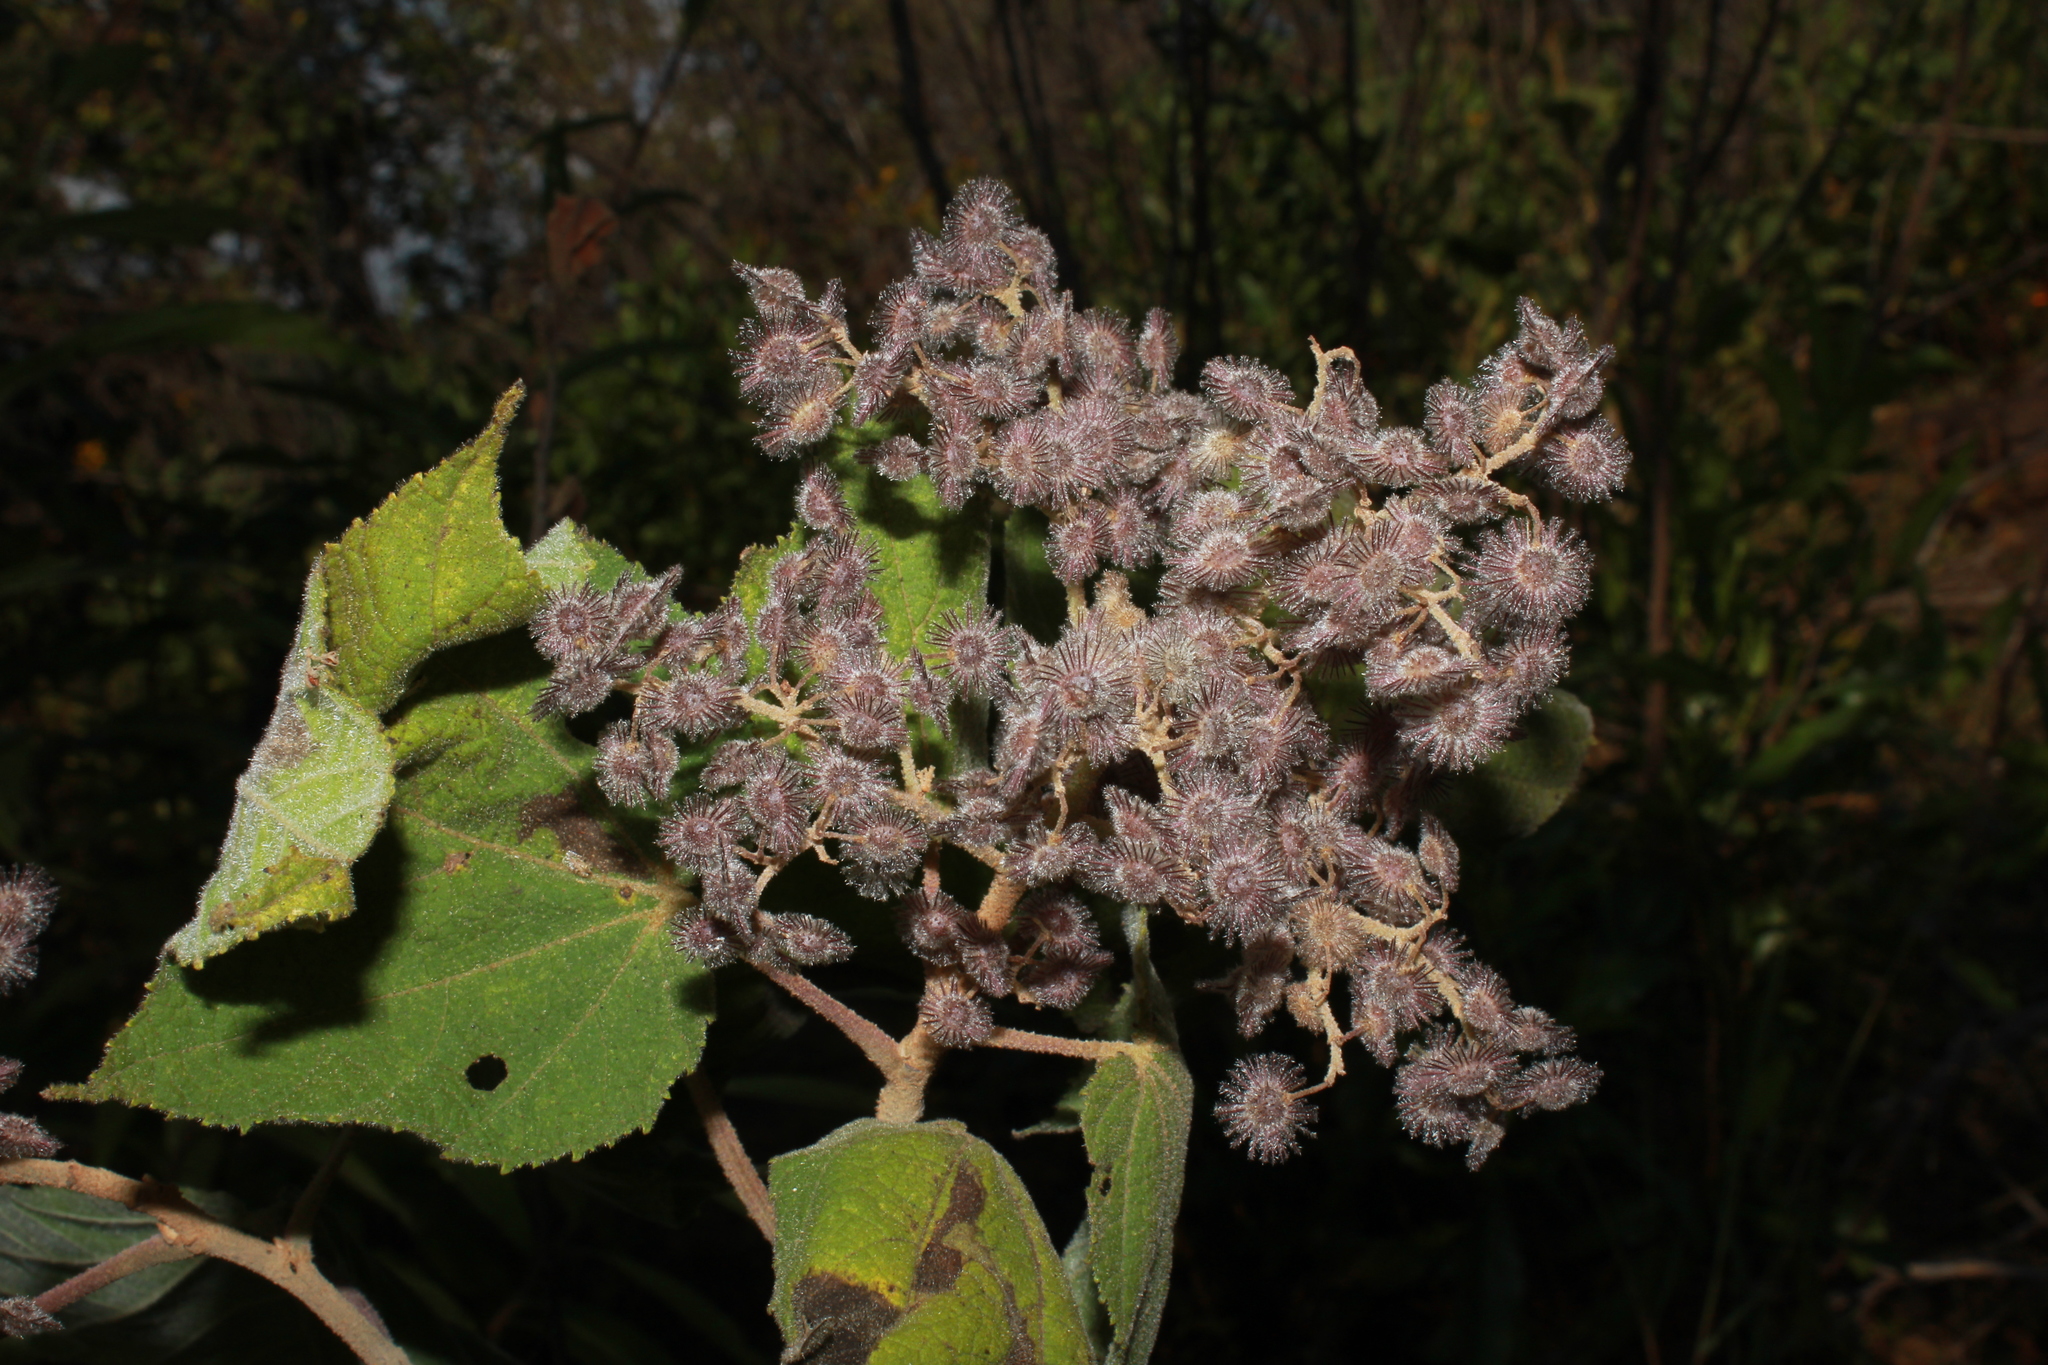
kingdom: Plantae
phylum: Tracheophyta
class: Magnoliopsida
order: Malvales
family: Malvaceae
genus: Heliocarpus
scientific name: Heliocarpus terebinthinaceus
